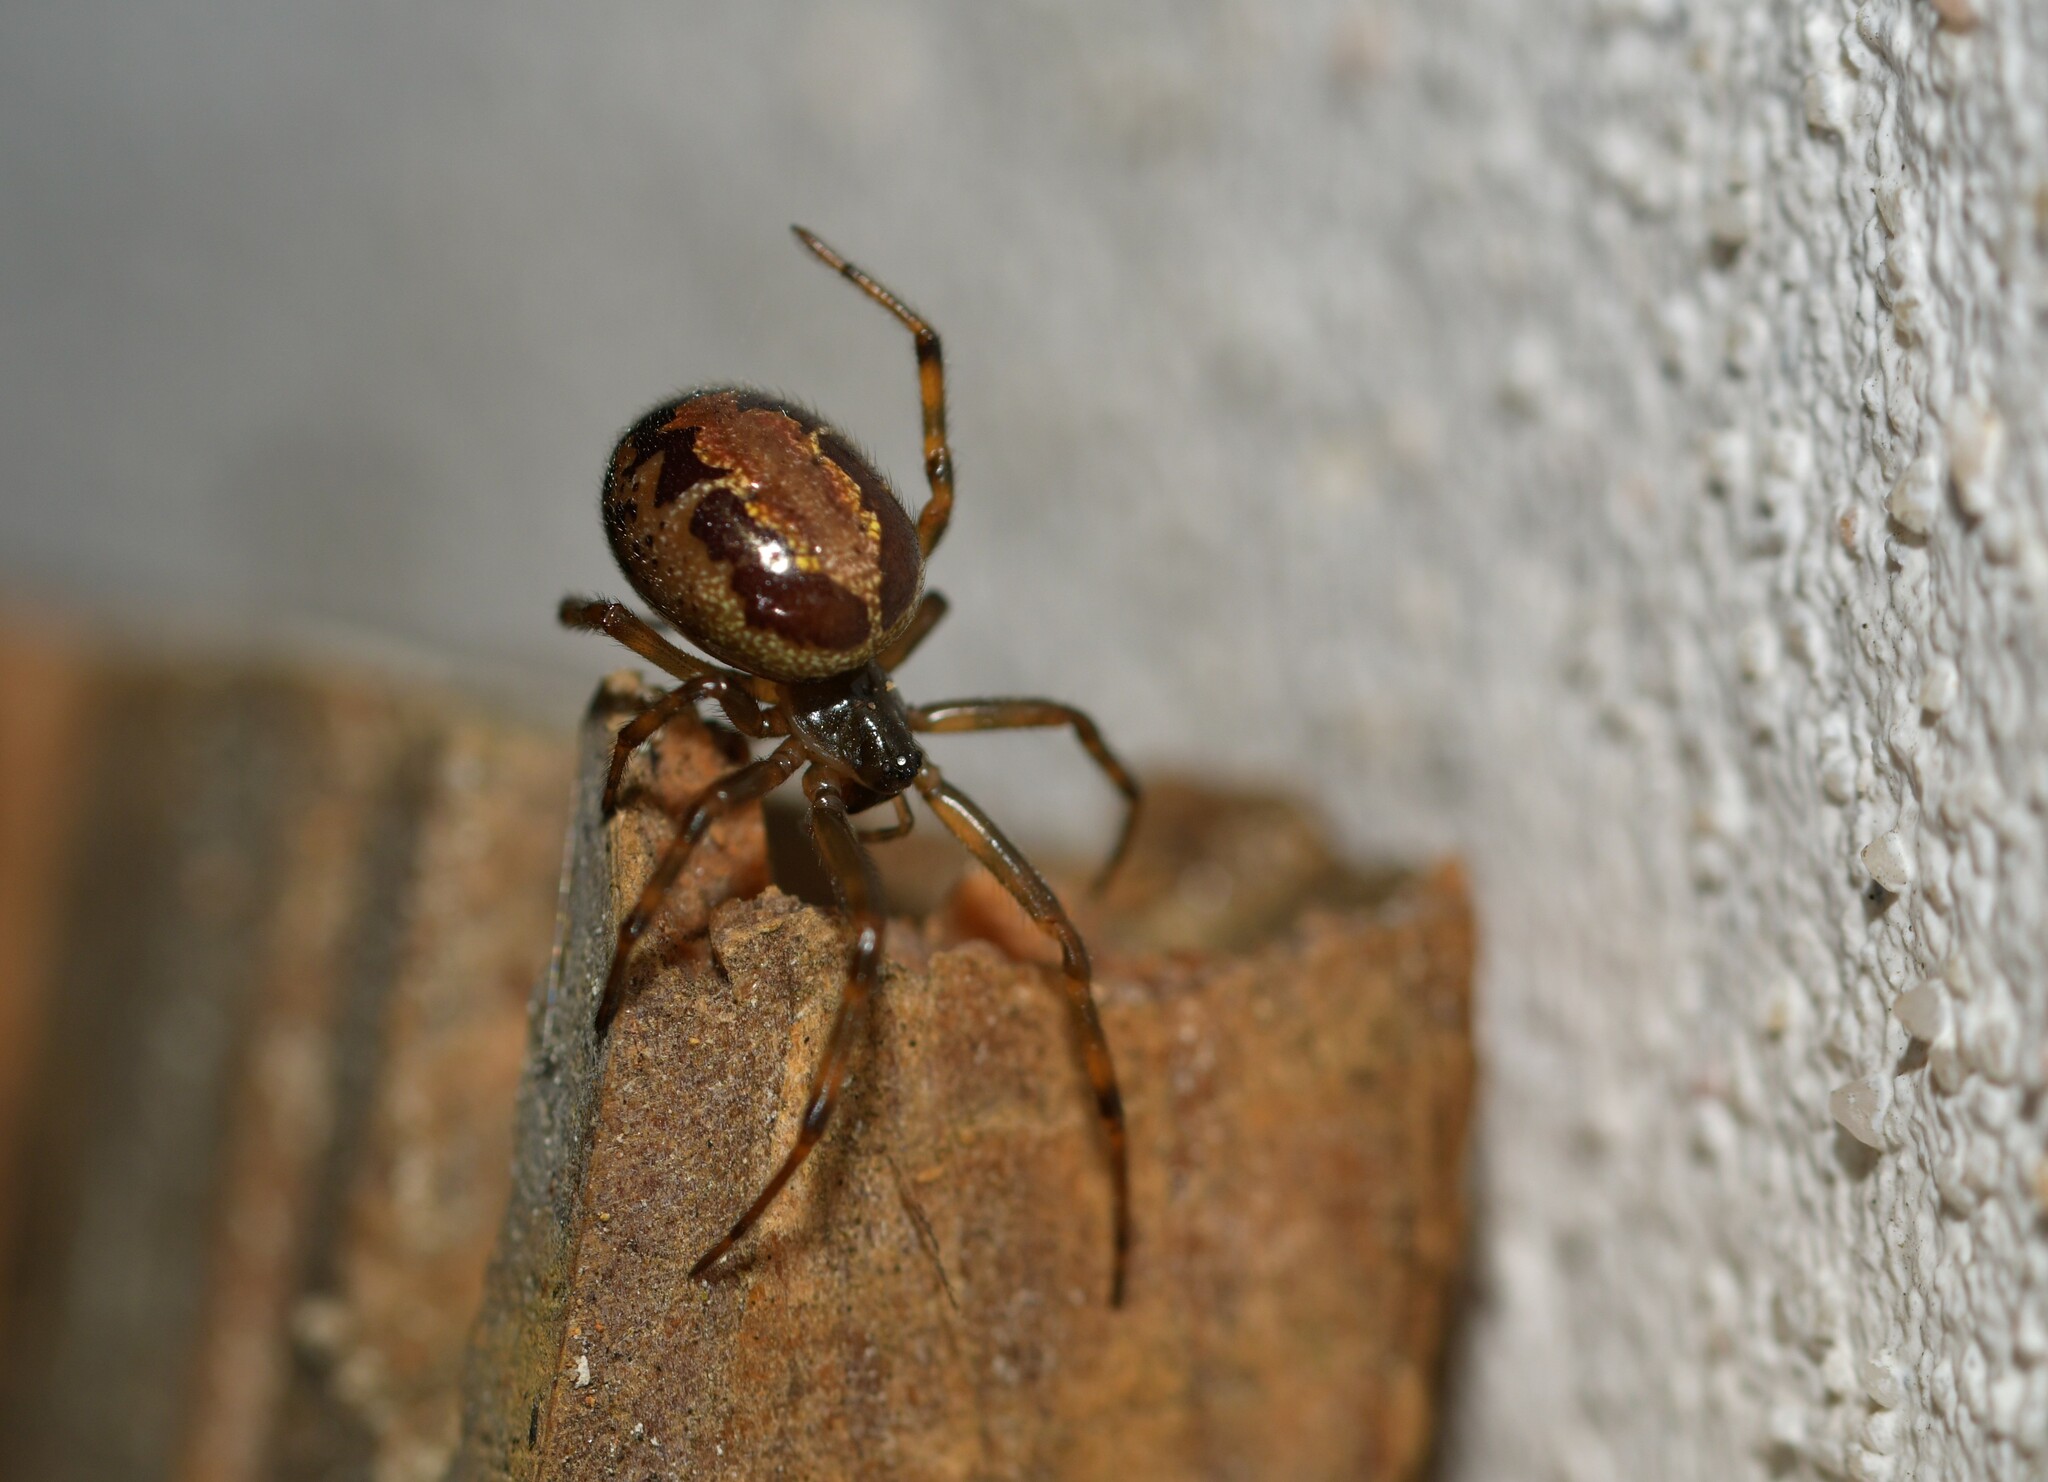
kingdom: Animalia
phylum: Arthropoda
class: Arachnida
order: Araneae
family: Theridiidae
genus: Steatoda
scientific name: Steatoda nobilis
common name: Cobweb weaver
